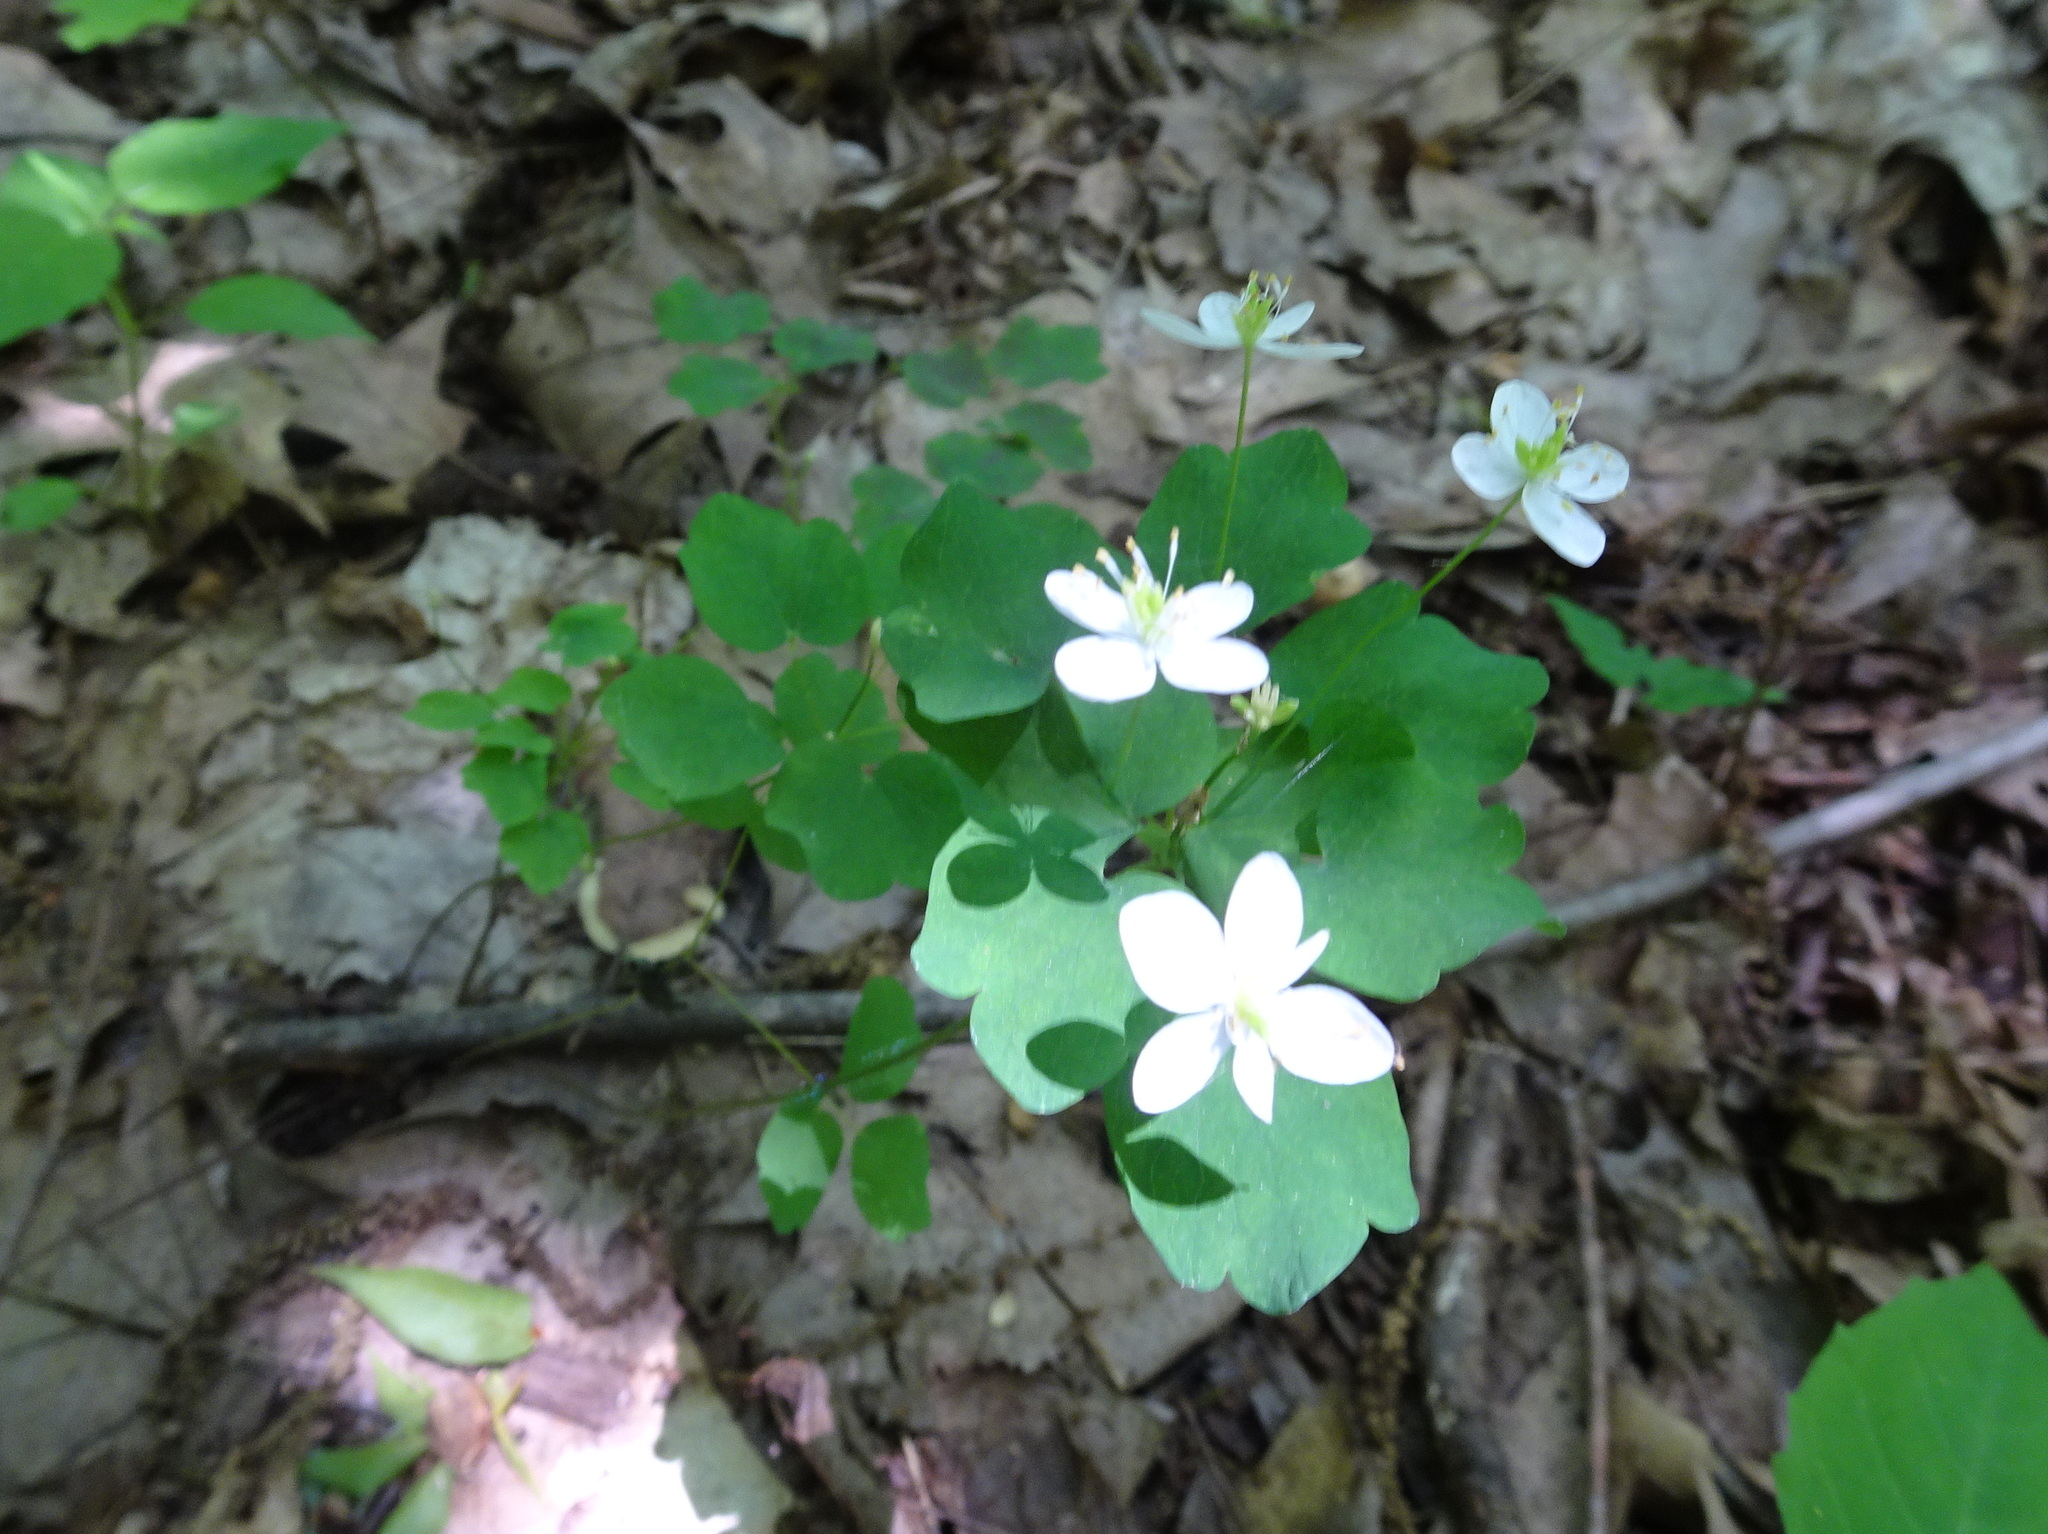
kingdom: Plantae
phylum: Tracheophyta
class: Magnoliopsida
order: Ranunculales
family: Ranunculaceae
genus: Thalictrum
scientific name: Thalictrum thalictroides
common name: Rue-anemone
